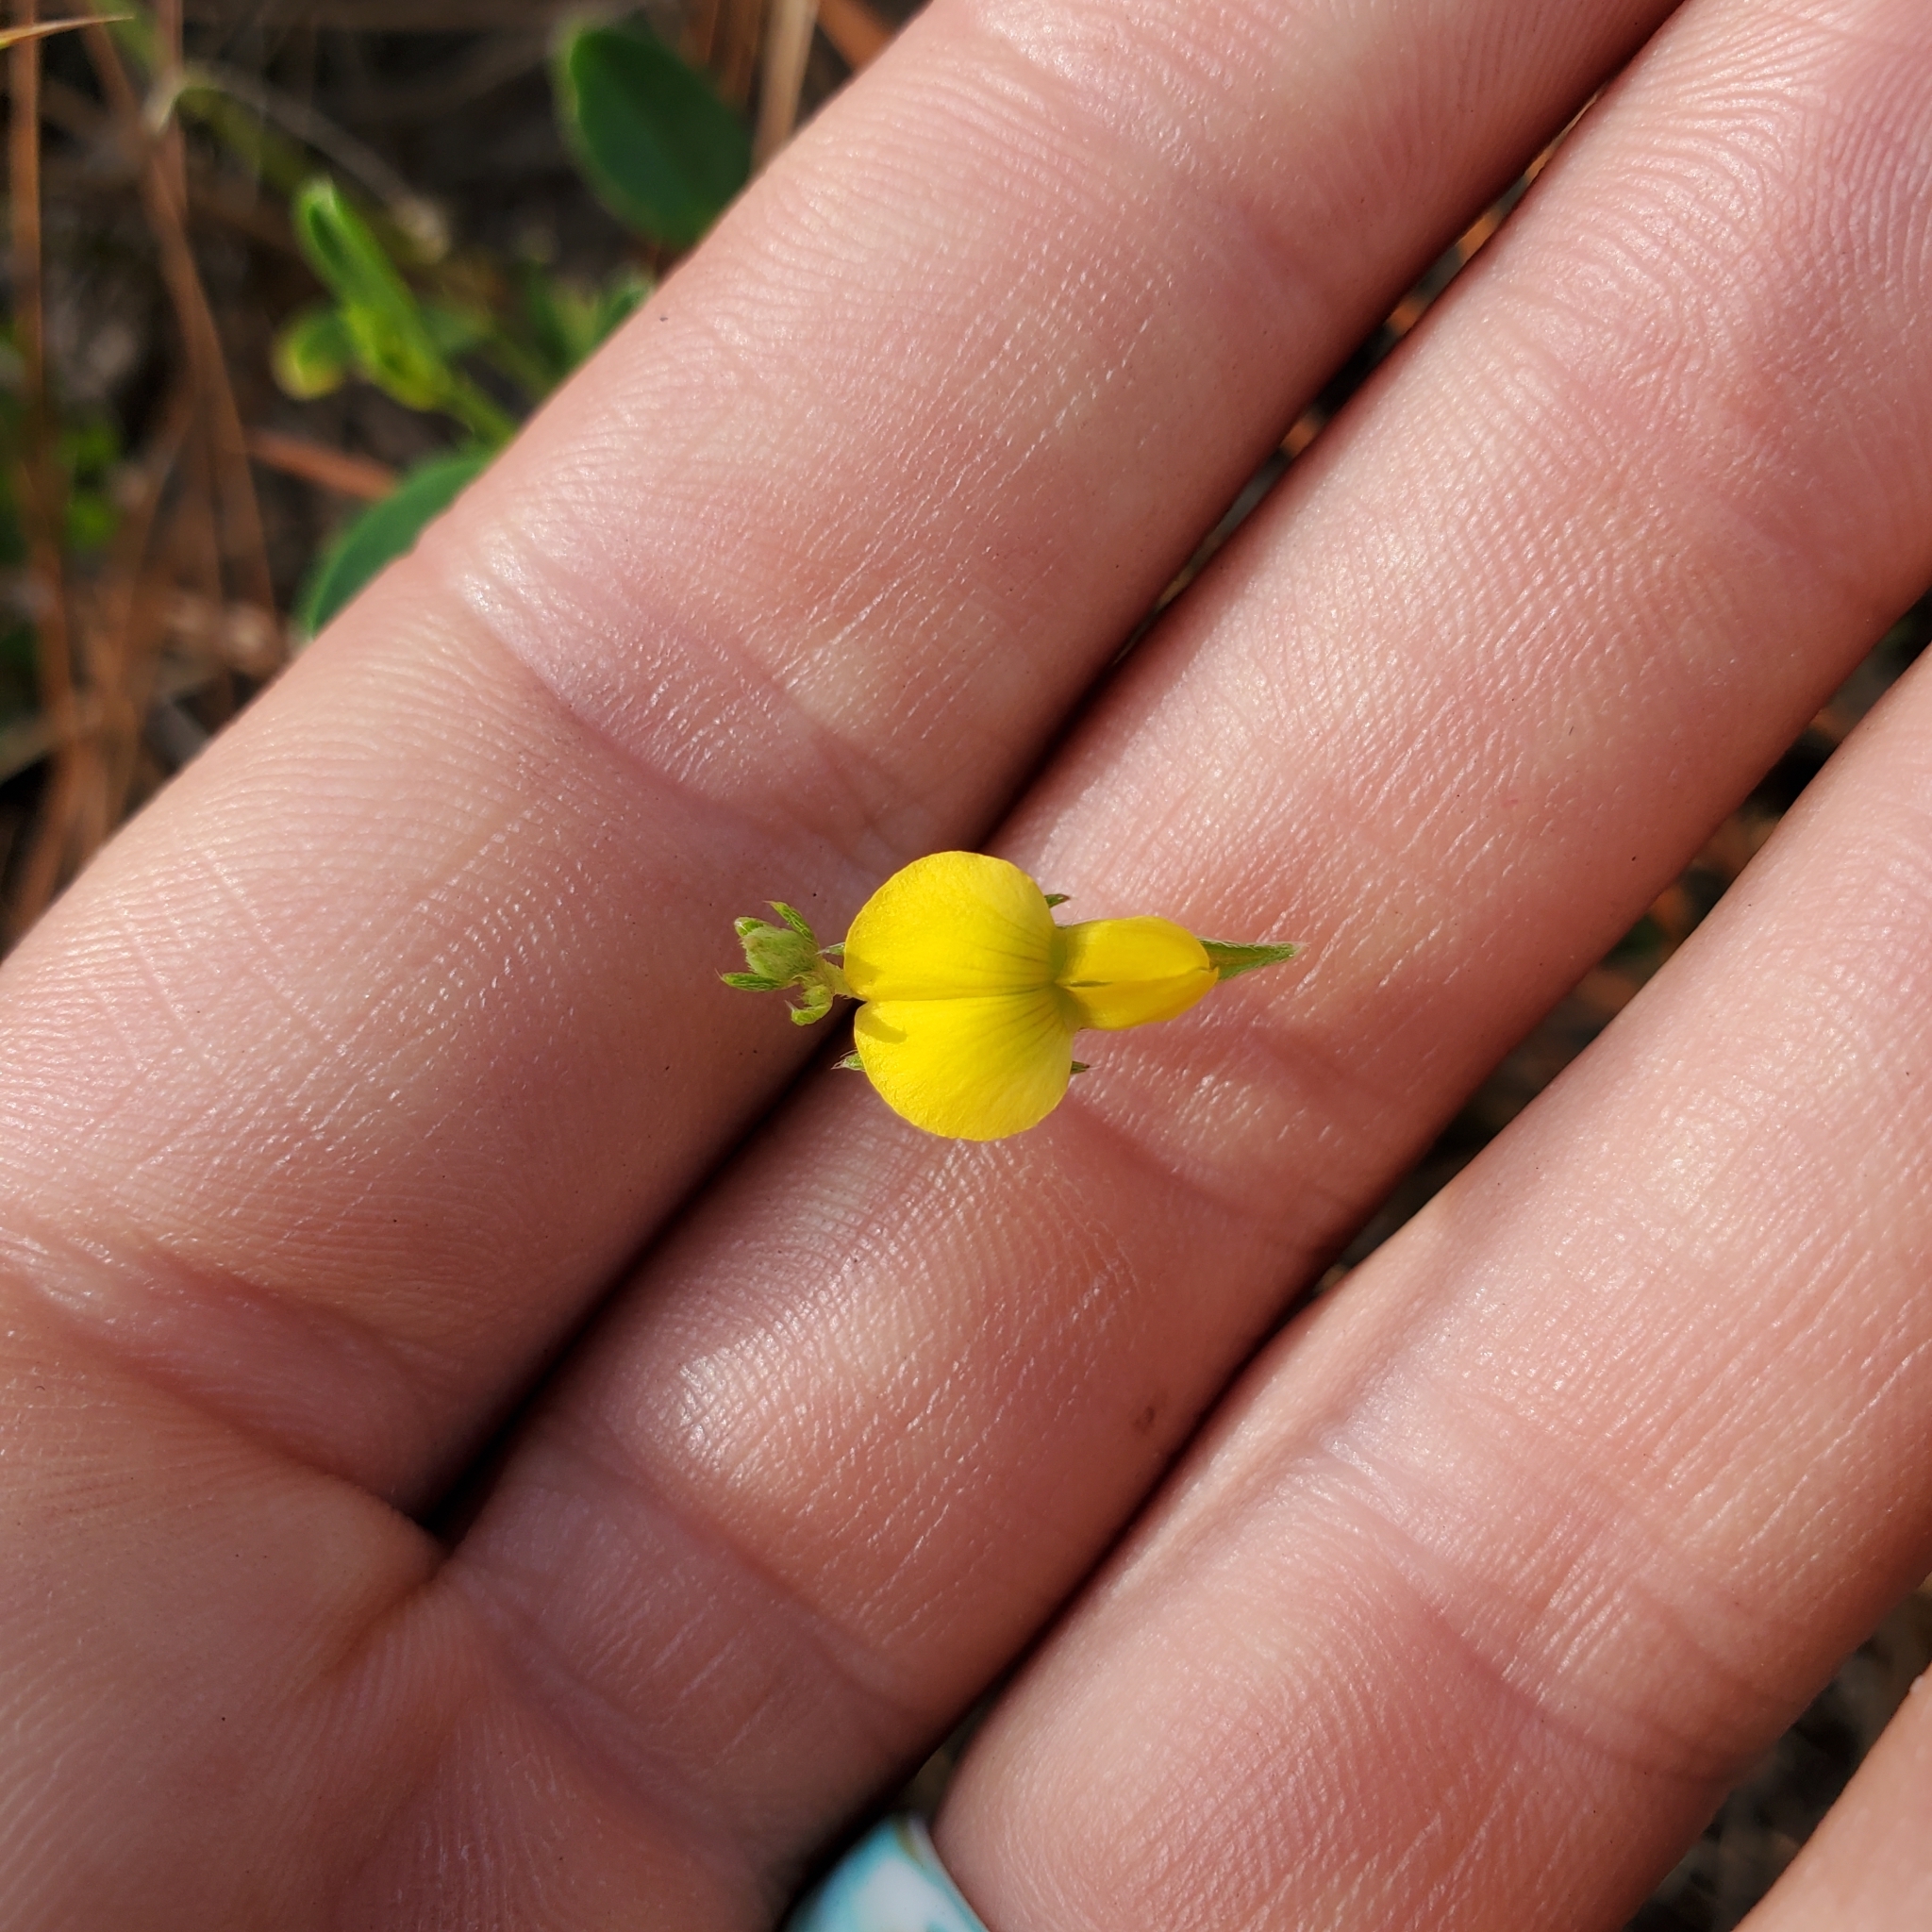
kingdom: Plantae
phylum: Tracheophyta
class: Magnoliopsida
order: Fabales
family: Fabaceae
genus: Crotalaria
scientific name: Crotalaria rotundifolia
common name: Prostrate rattlebox
